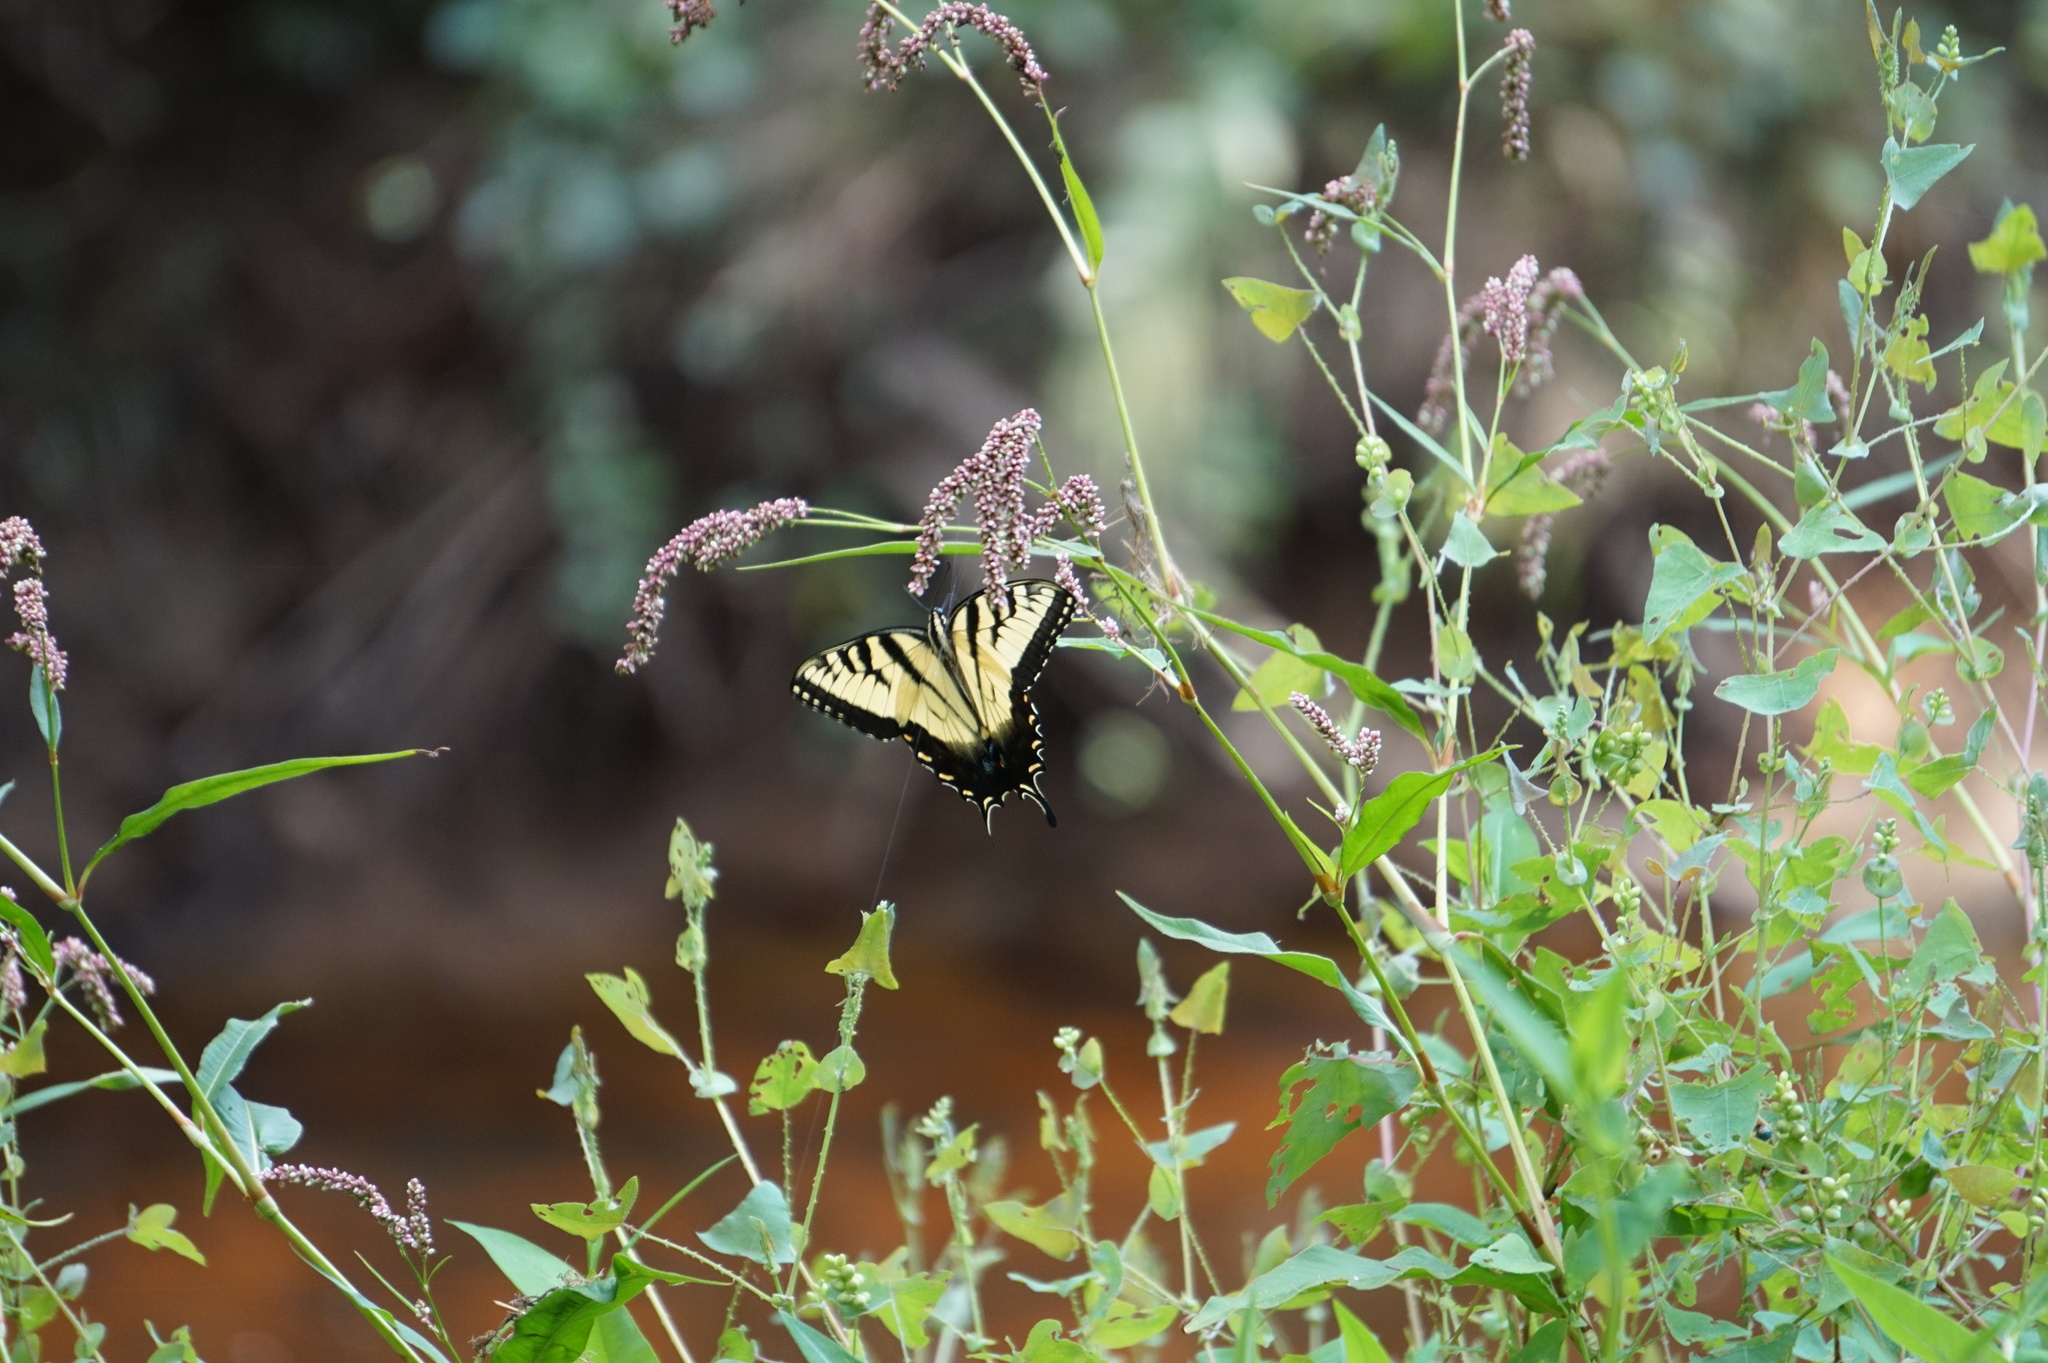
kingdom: Animalia
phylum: Arthropoda
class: Insecta
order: Lepidoptera
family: Papilionidae
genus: Papilio
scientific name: Papilio glaucus
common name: Tiger swallowtail
